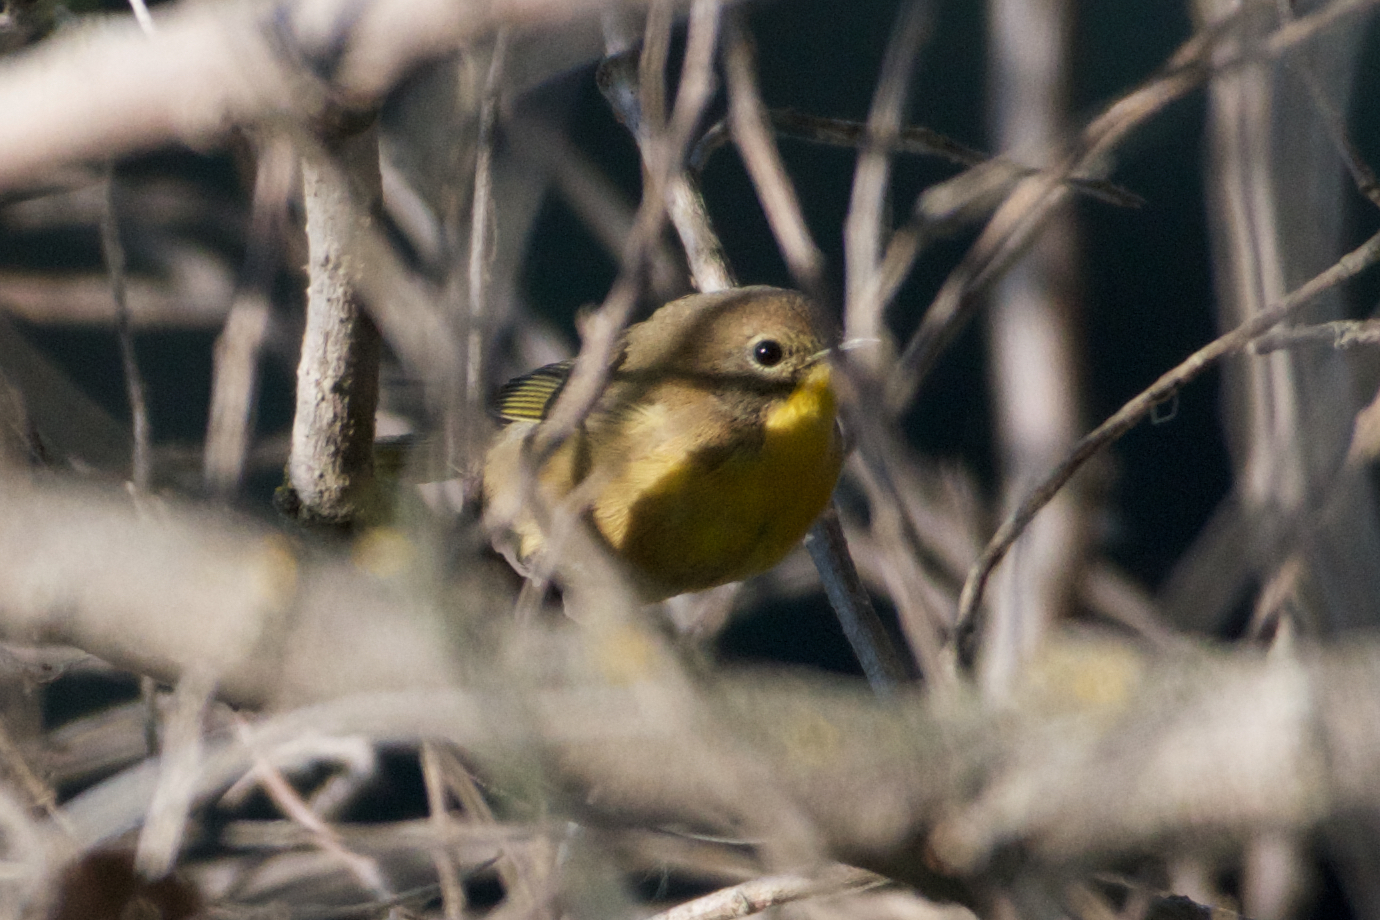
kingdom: Animalia
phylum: Chordata
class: Aves
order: Passeriformes
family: Parulidae
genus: Geothlypis
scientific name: Geothlypis trichas
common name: Common yellowthroat
